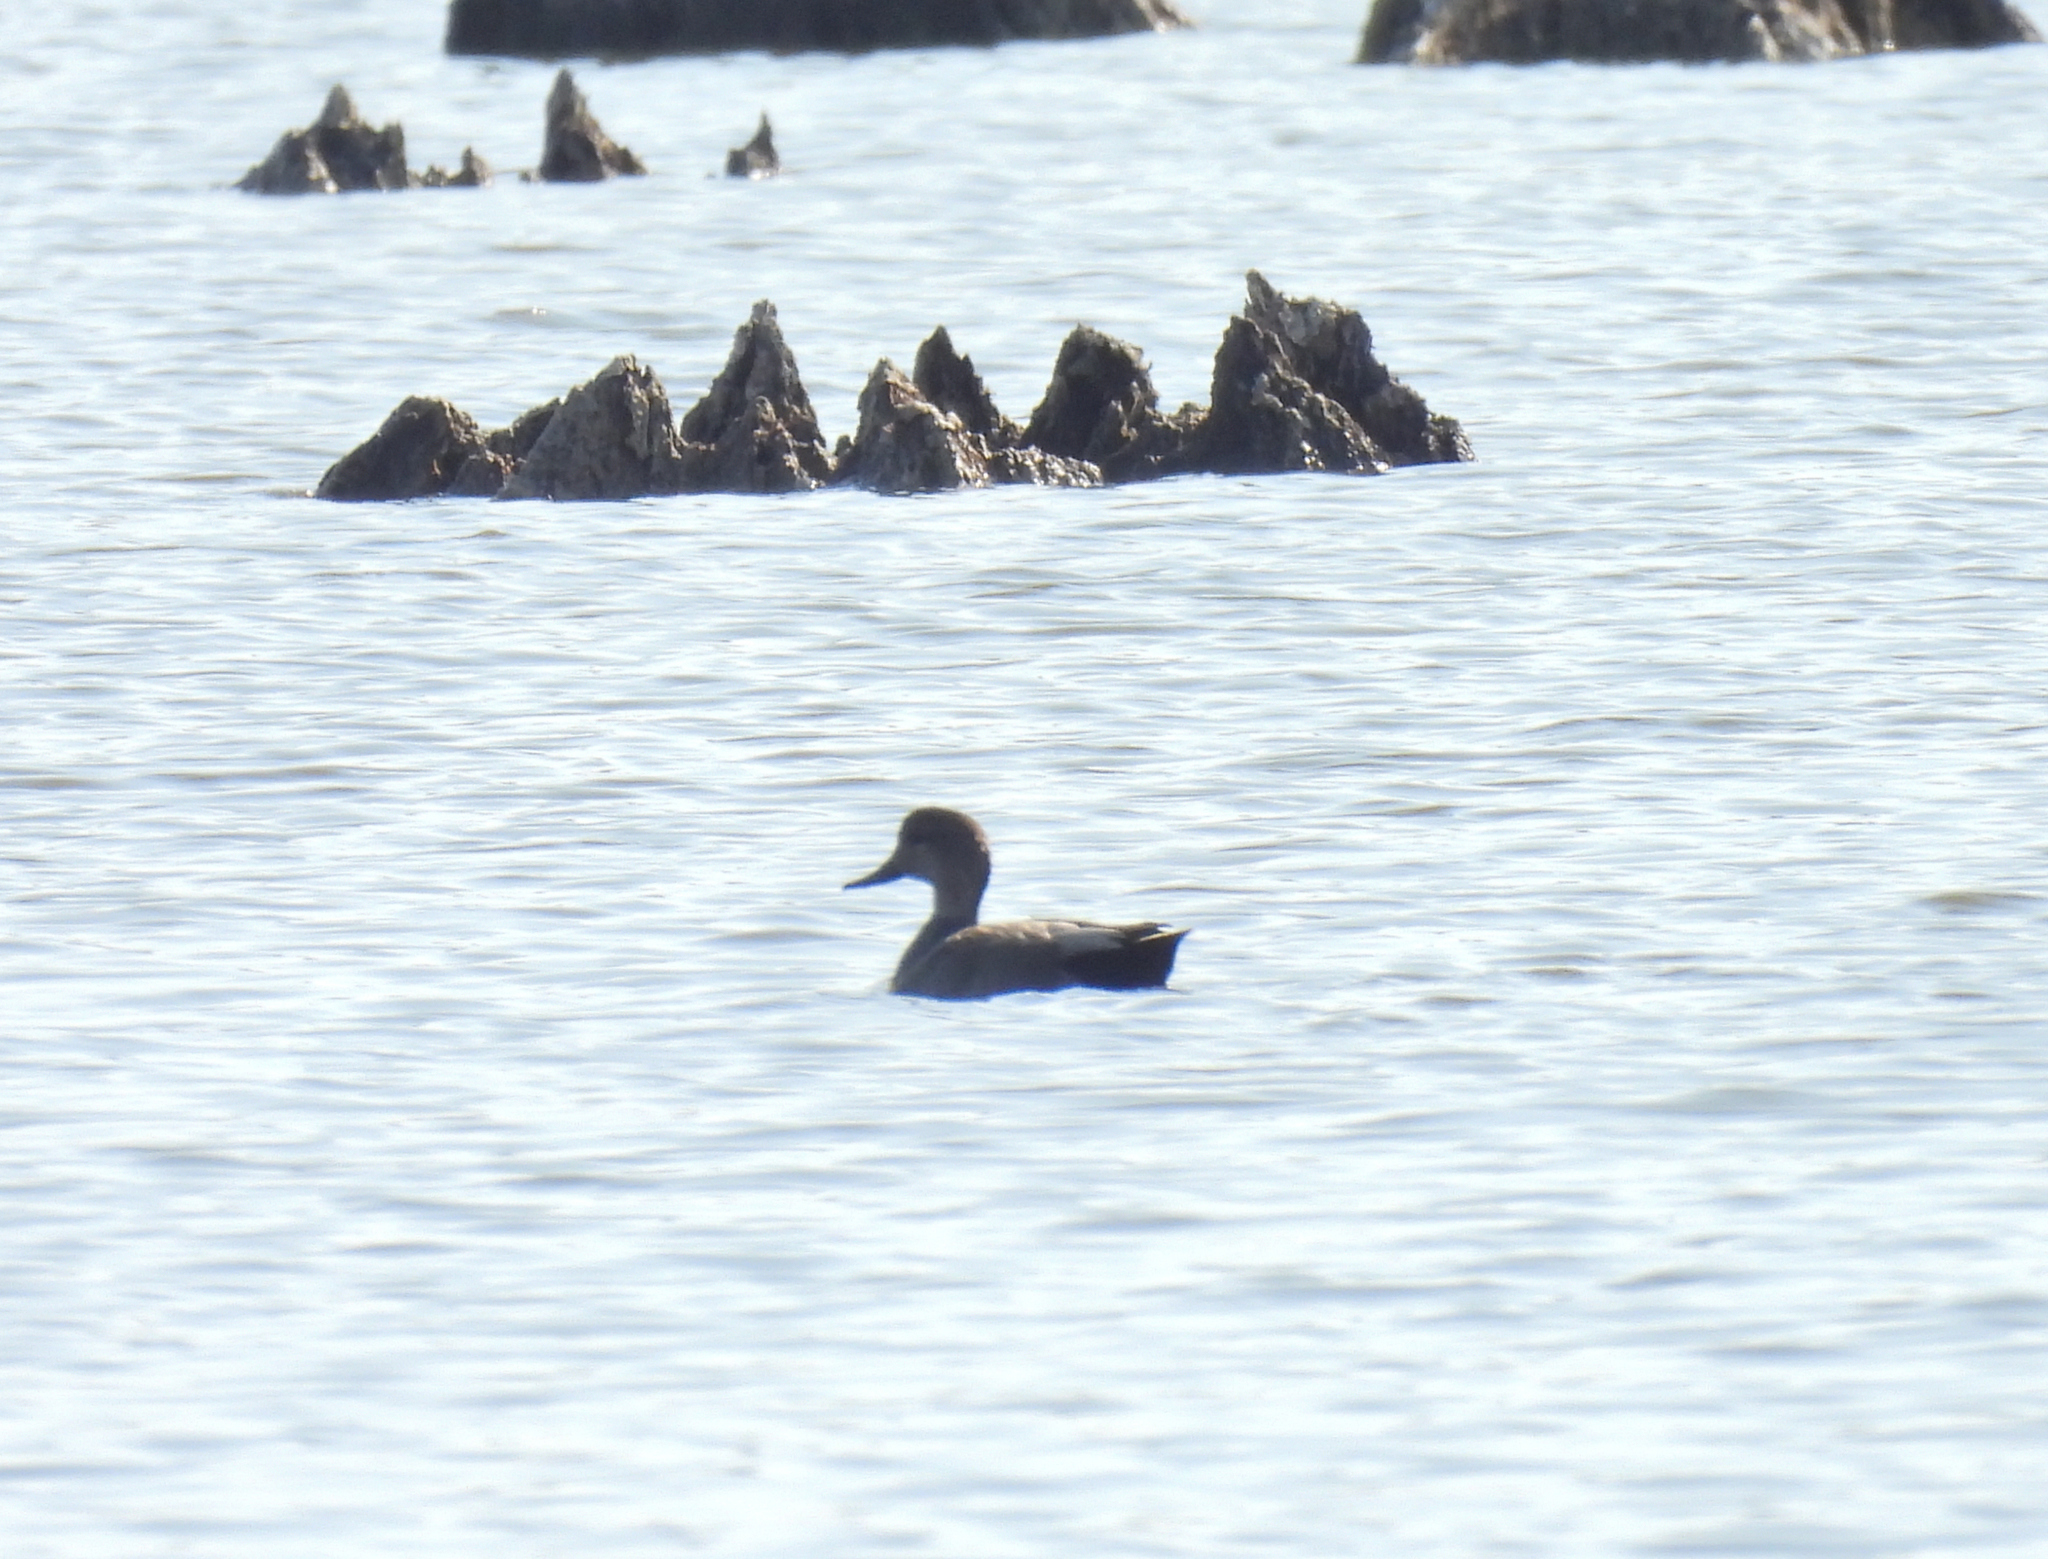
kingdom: Animalia
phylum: Chordata
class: Aves
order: Anseriformes
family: Anatidae
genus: Mareca
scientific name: Mareca strepera
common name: Gadwall
